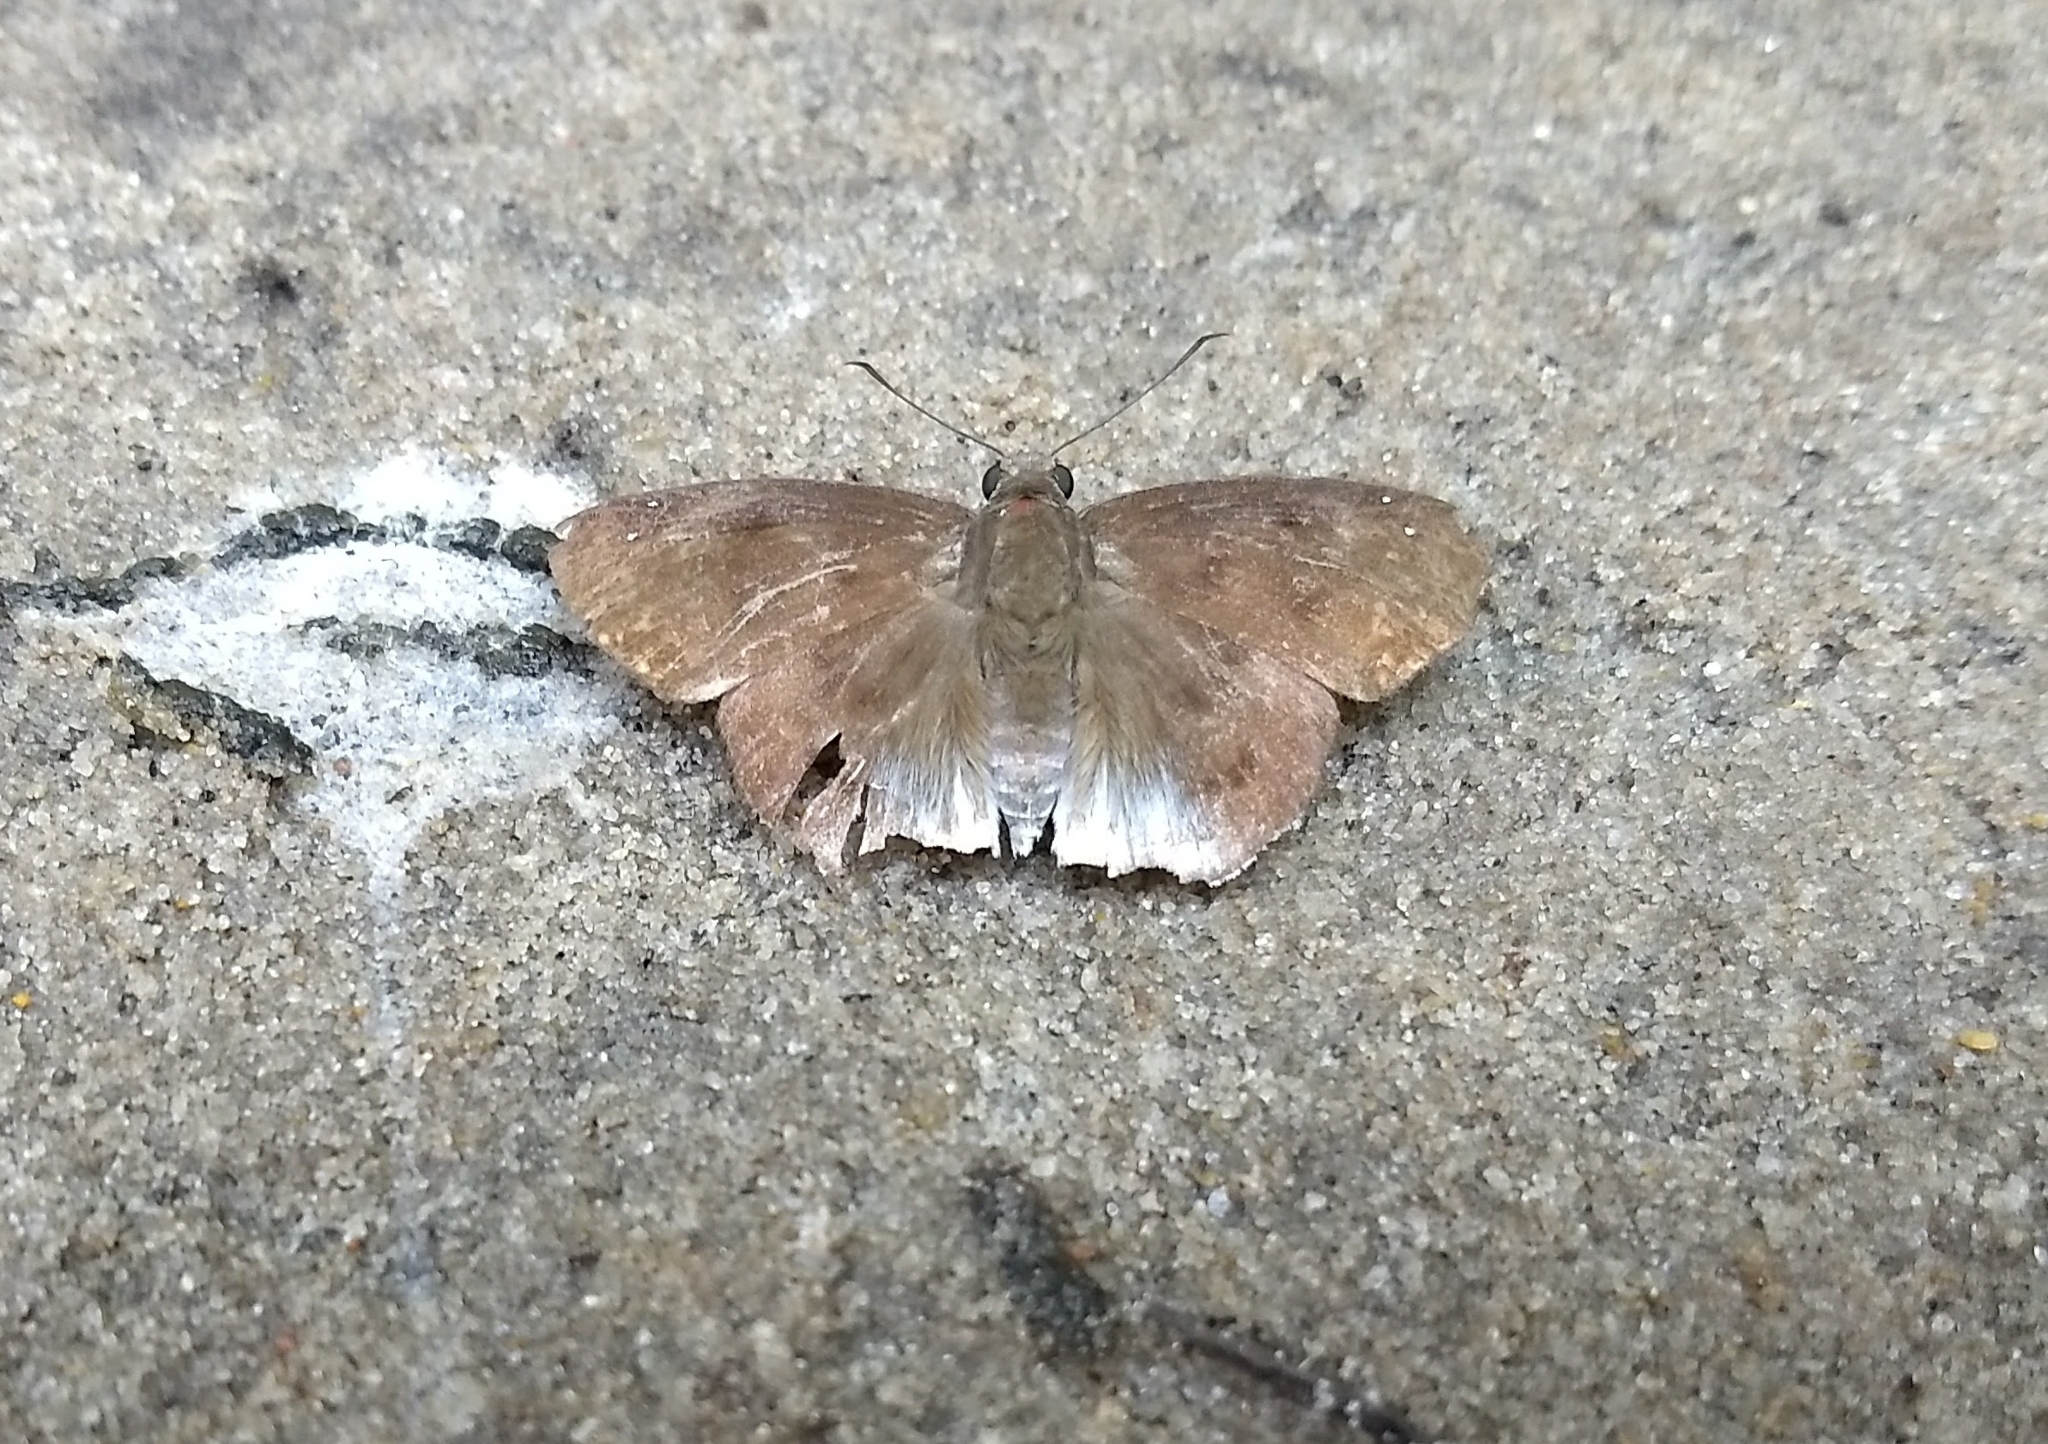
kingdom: Animalia
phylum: Arthropoda
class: Insecta
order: Lepidoptera
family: Hesperiidae
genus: Tagiades
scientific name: Tagiades gana
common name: Suffused snow flat
